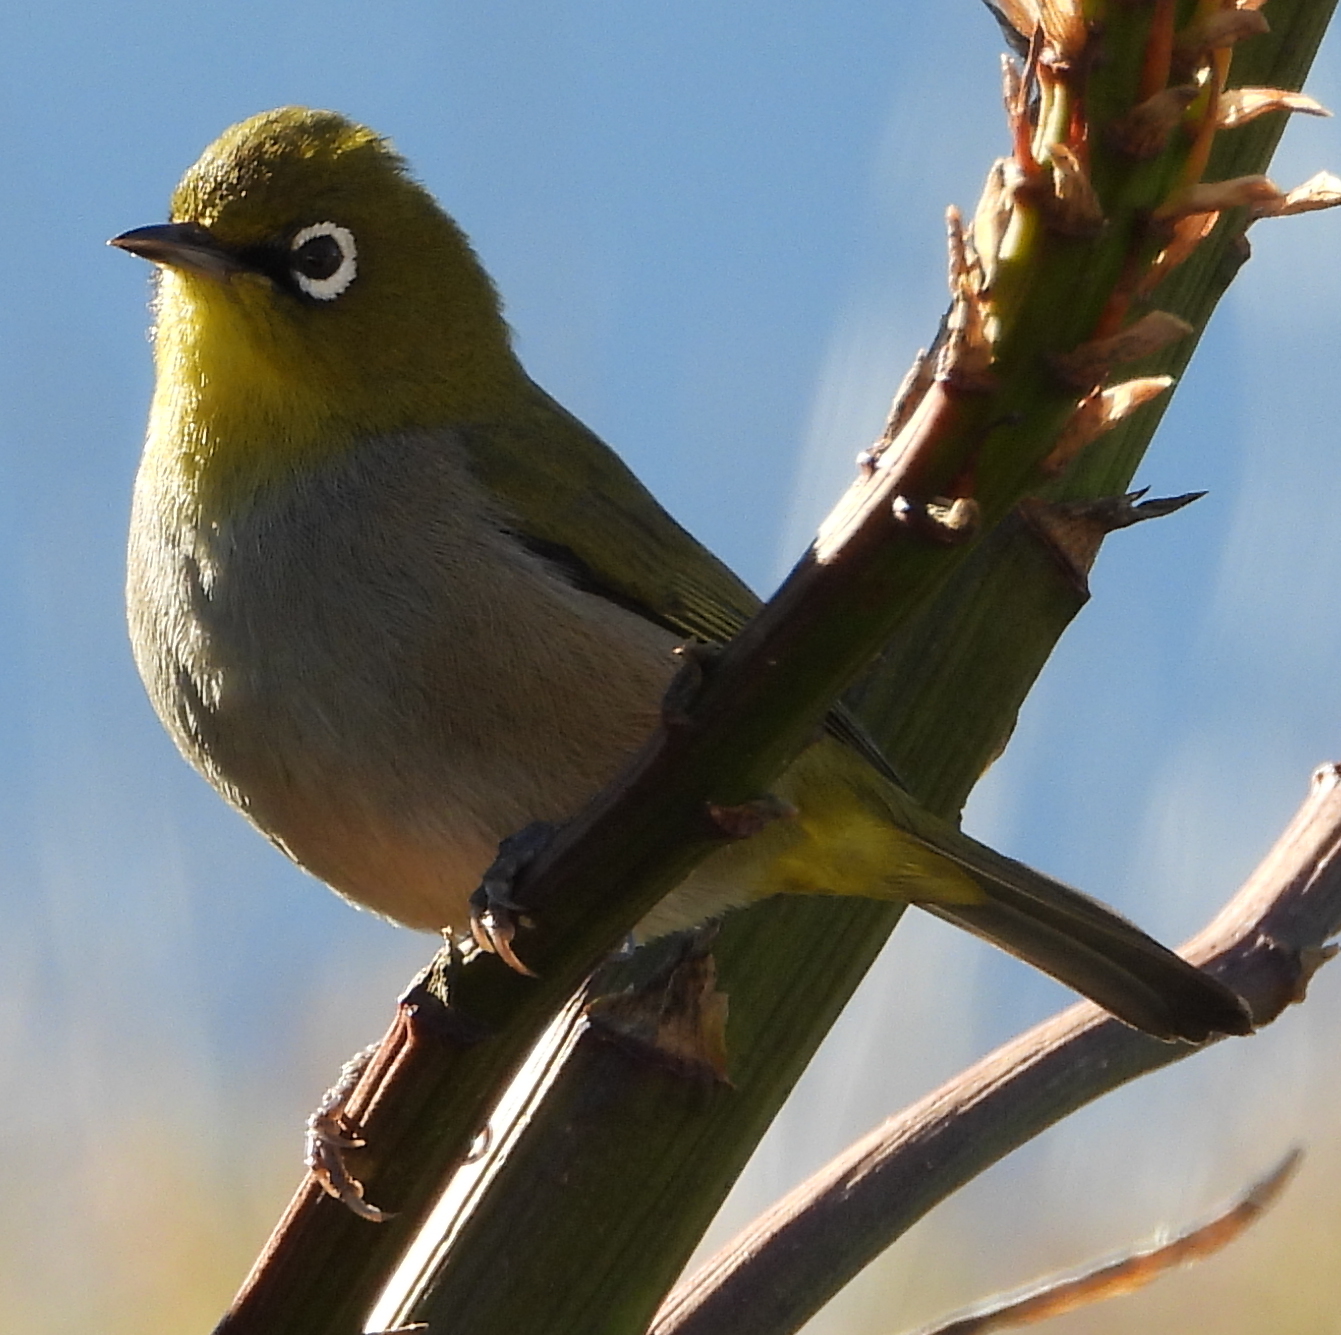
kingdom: Animalia
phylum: Chordata
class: Aves
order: Passeriformes
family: Zosteropidae
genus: Zosterops
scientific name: Zosterops virens
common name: Cape white-eye
